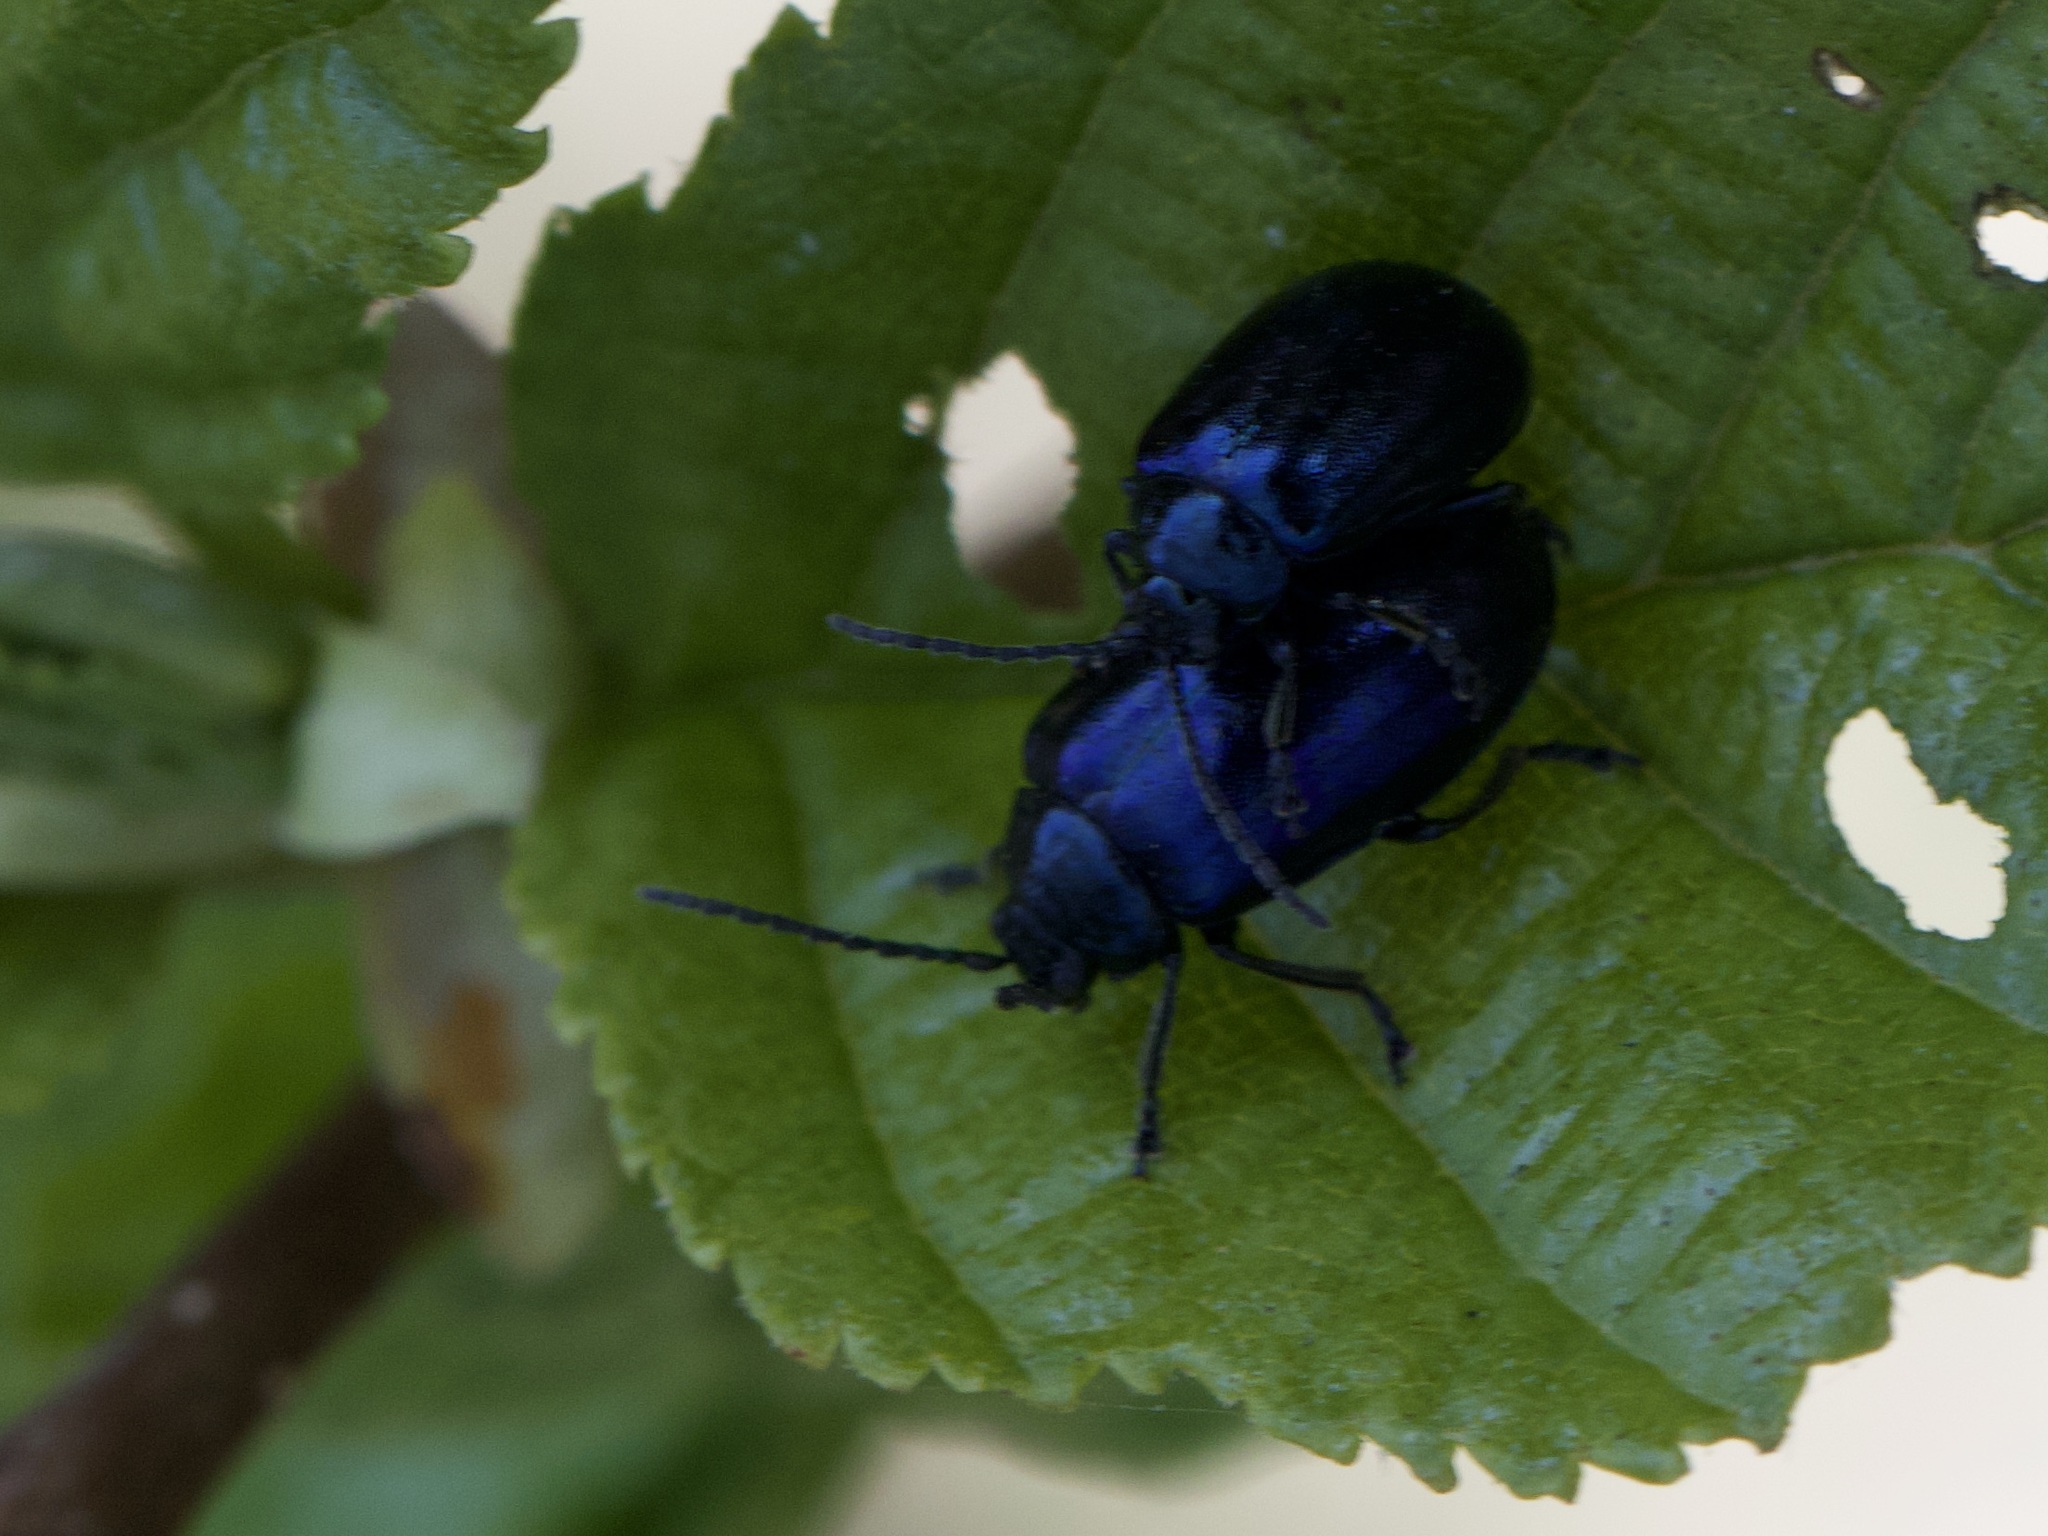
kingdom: Animalia
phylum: Arthropoda
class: Insecta
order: Coleoptera
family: Chrysomelidae
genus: Agelastica
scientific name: Agelastica alni
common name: Alder leaf beetle
